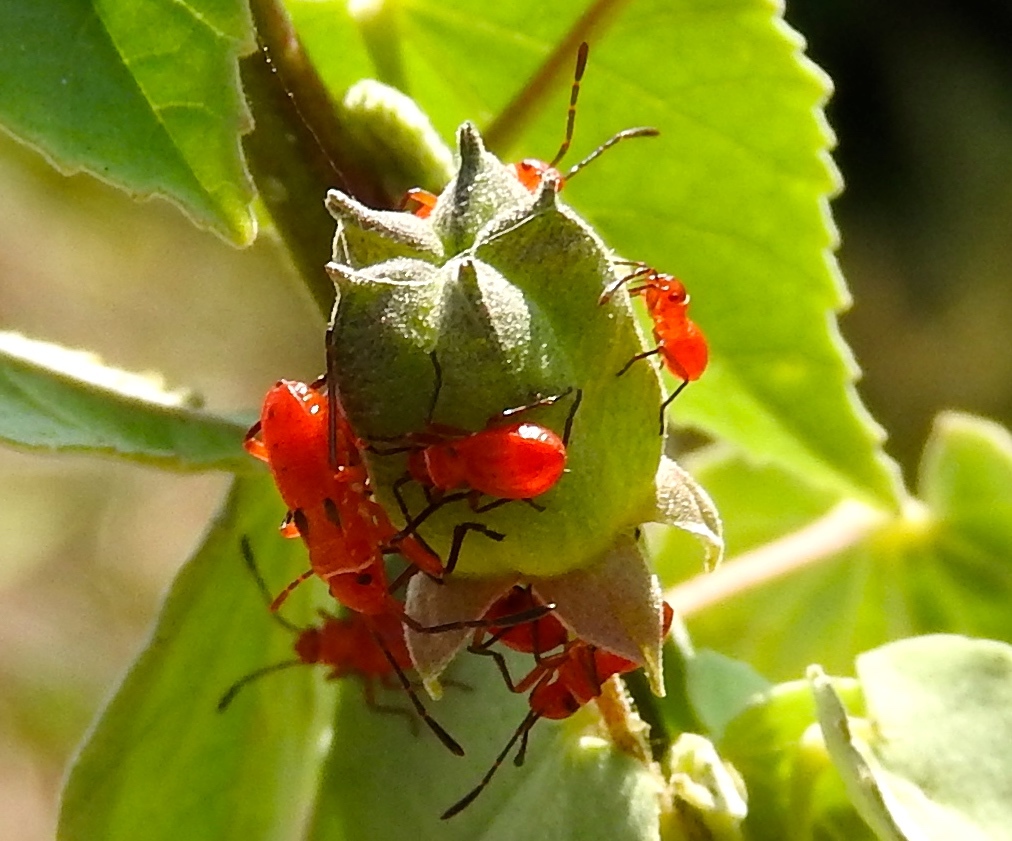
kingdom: Animalia
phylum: Arthropoda
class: Insecta
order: Hemiptera
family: Pyrrhocoridae
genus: Dysdercus
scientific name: Dysdercus
